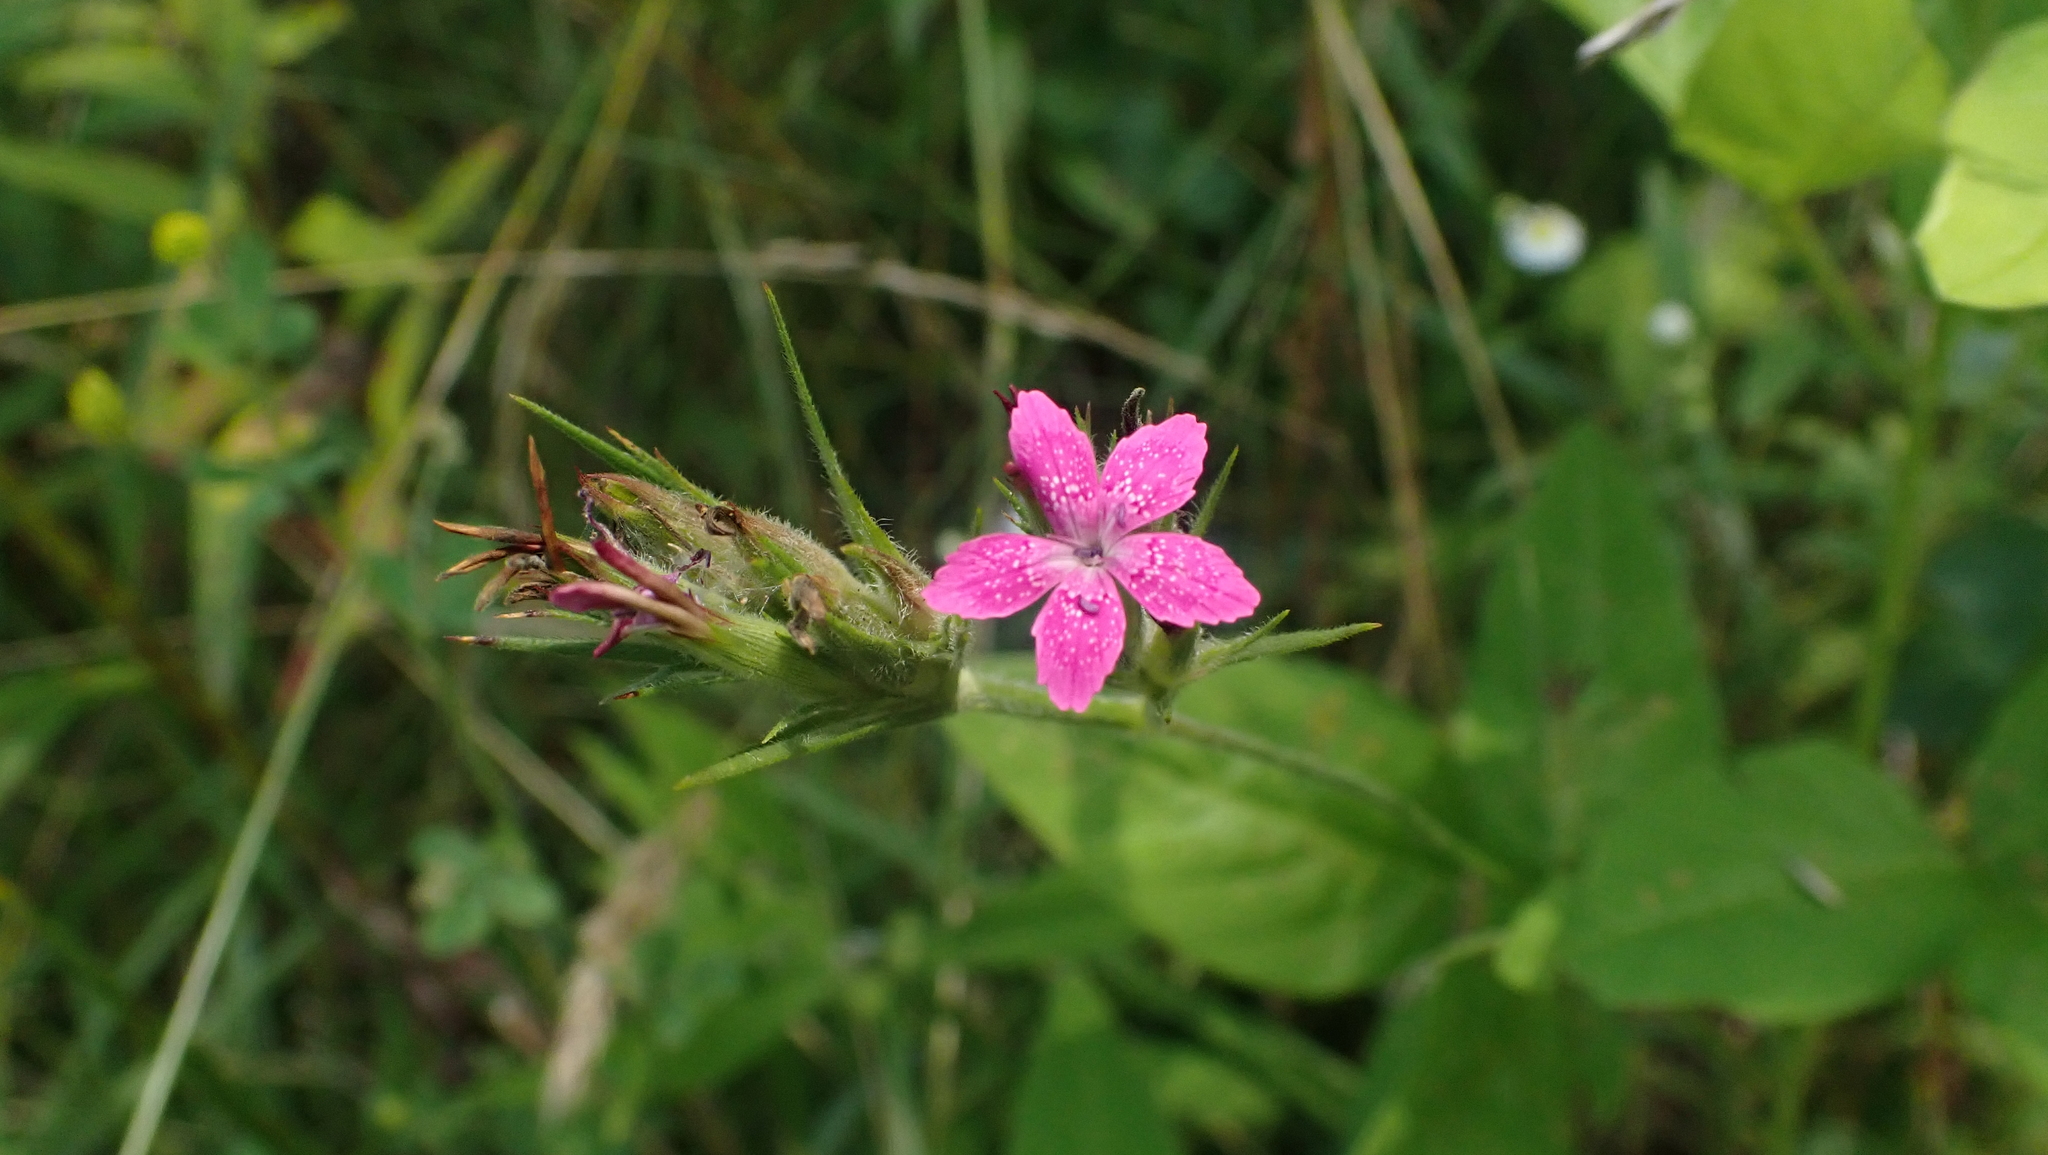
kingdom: Plantae
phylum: Tracheophyta
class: Magnoliopsida
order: Caryophyllales
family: Caryophyllaceae
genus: Dianthus
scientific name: Dianthus armeria
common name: Deptford pink
